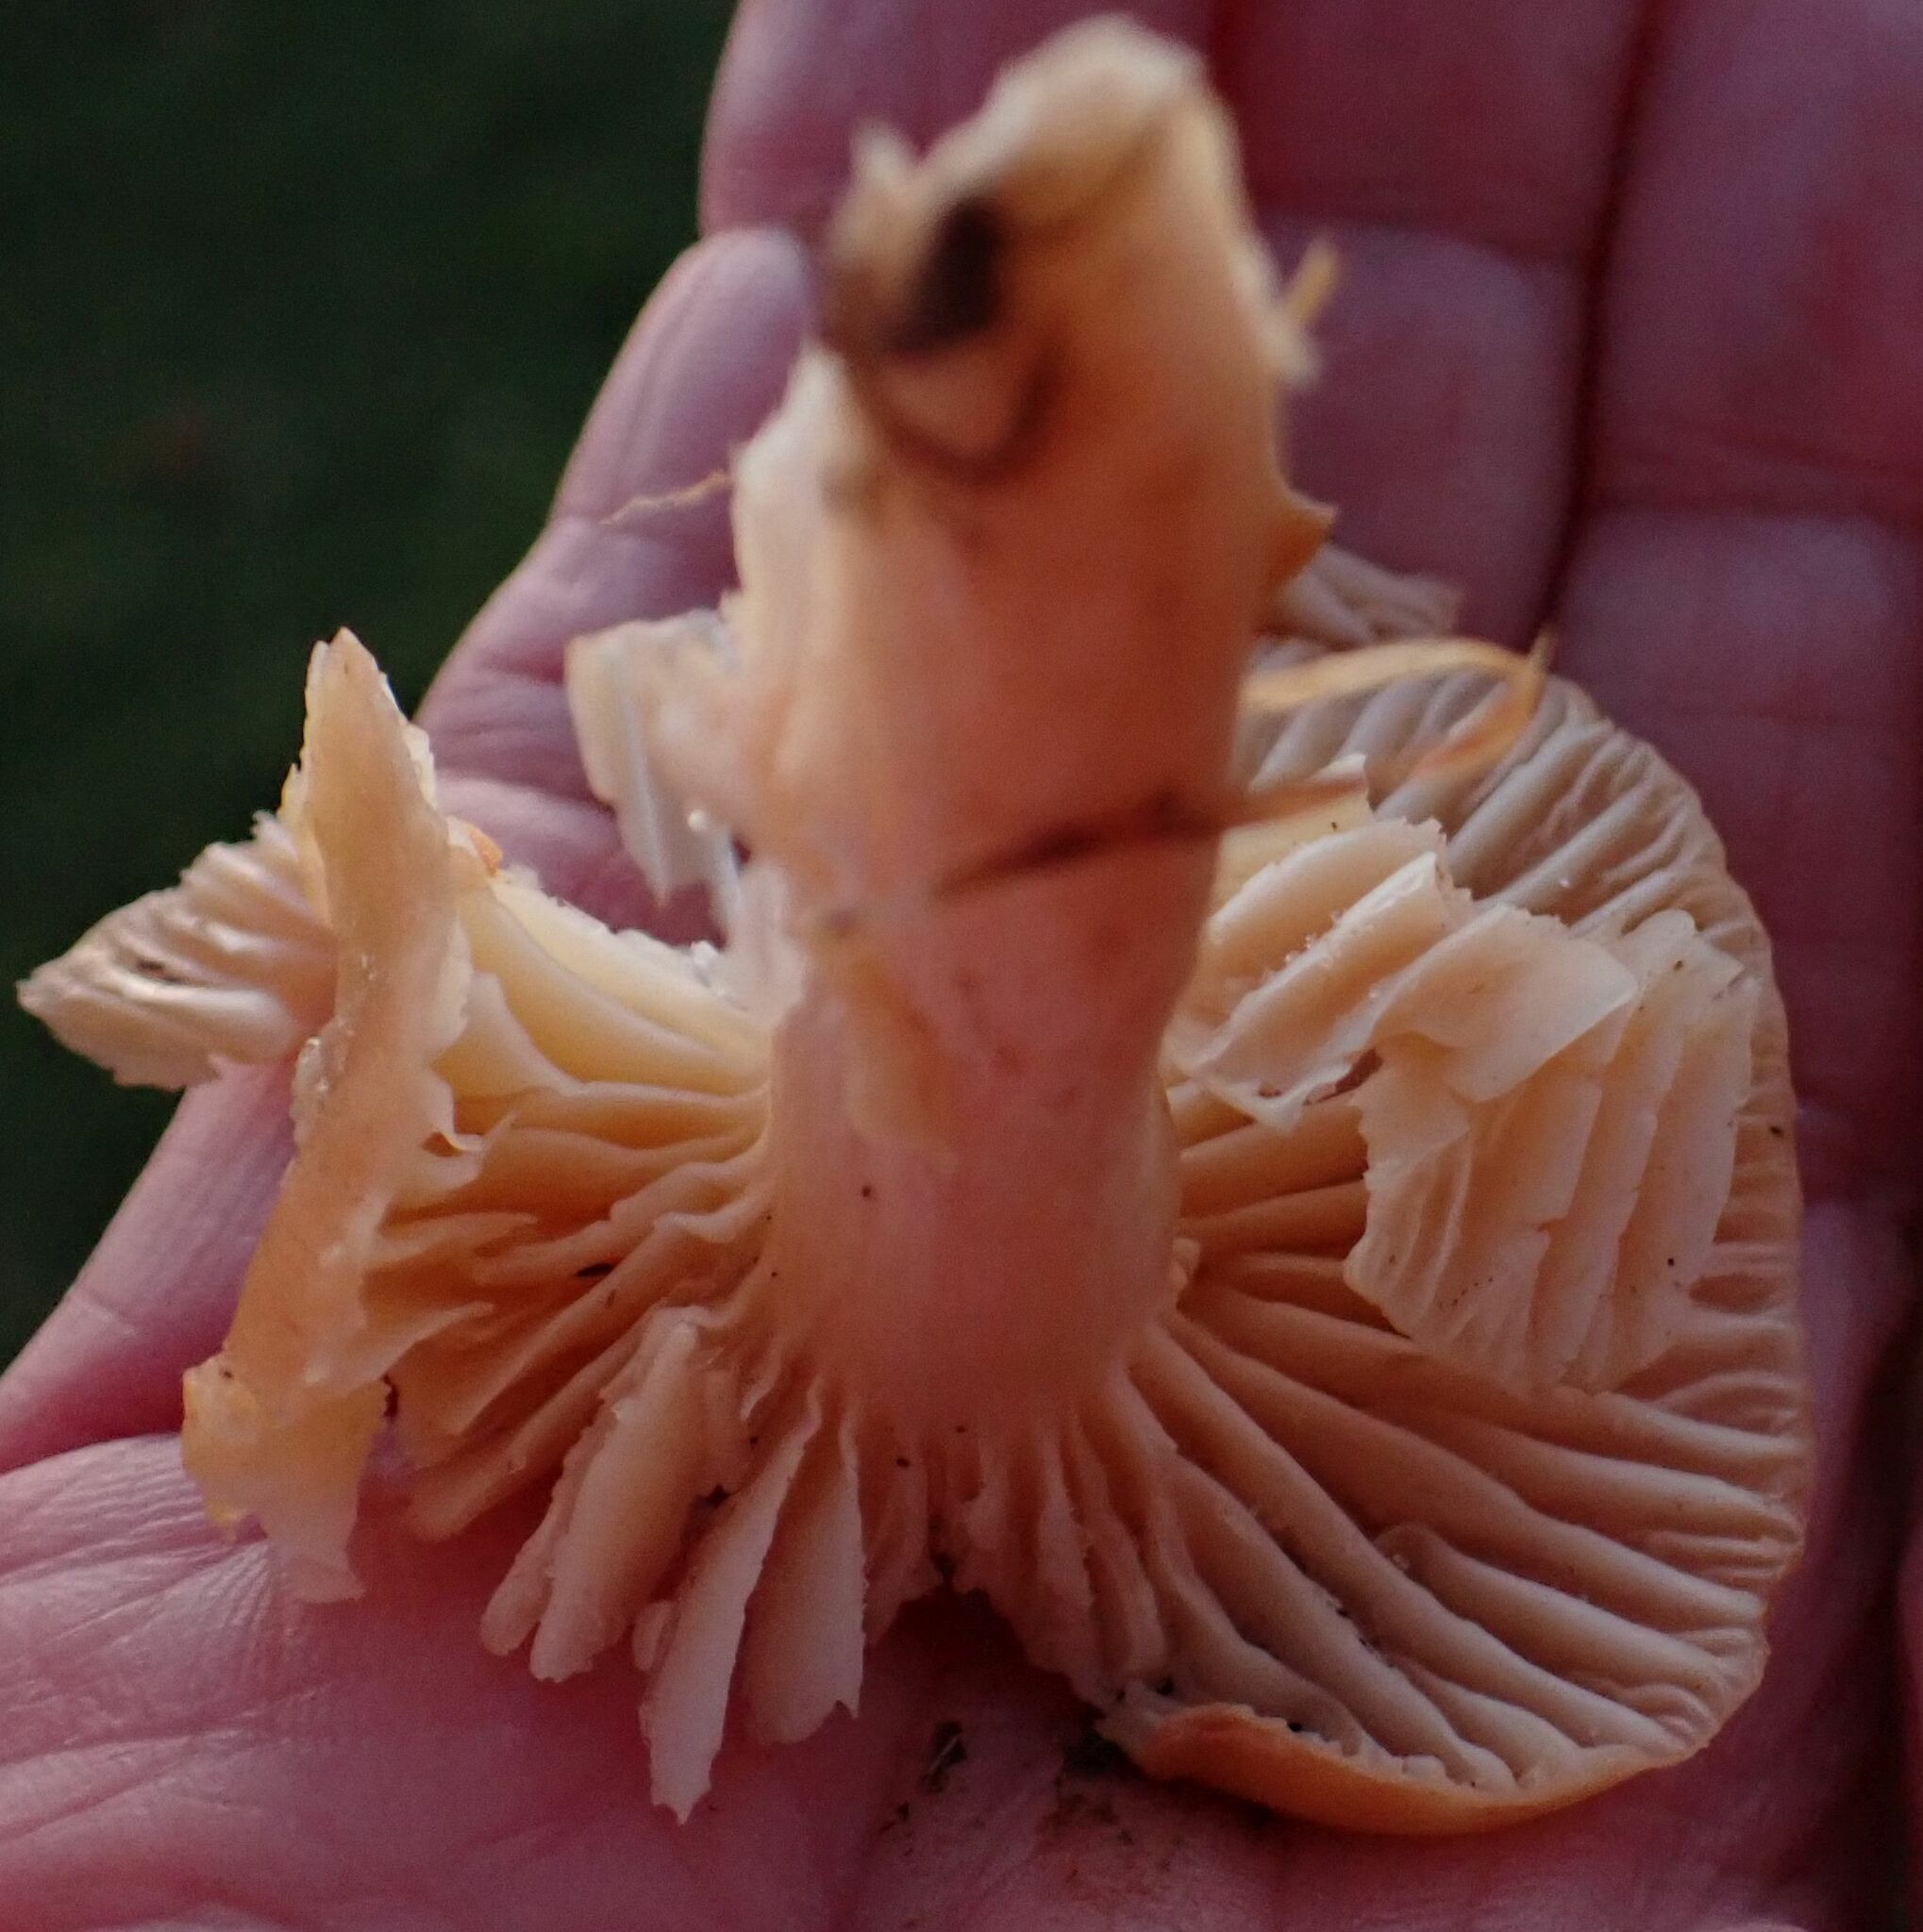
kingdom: Fungi
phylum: Basidiomycota
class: Agaricomycetes
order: Agaricales
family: Hygrophoraceae
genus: Cuphophyllus
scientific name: Cuphophyllus pratensis
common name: Meadow waxcap
